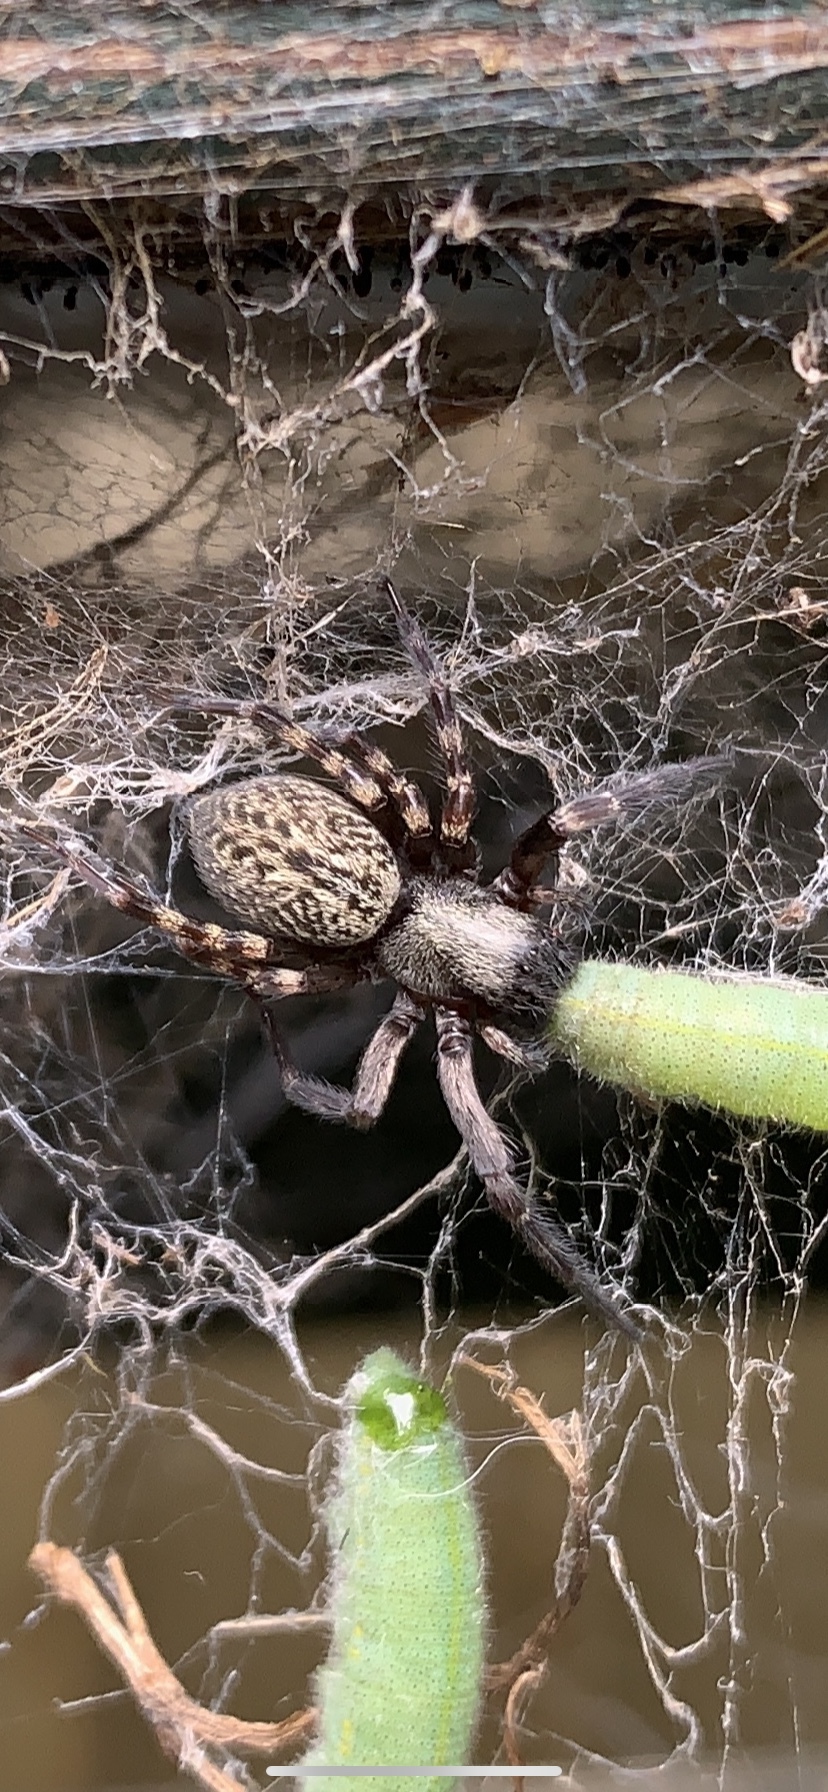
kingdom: Animalia
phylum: Arthropoda
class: Arachnida
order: Araneae
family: Desidae
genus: Badumna
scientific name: Badumna longinqua
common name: Gray house spider
